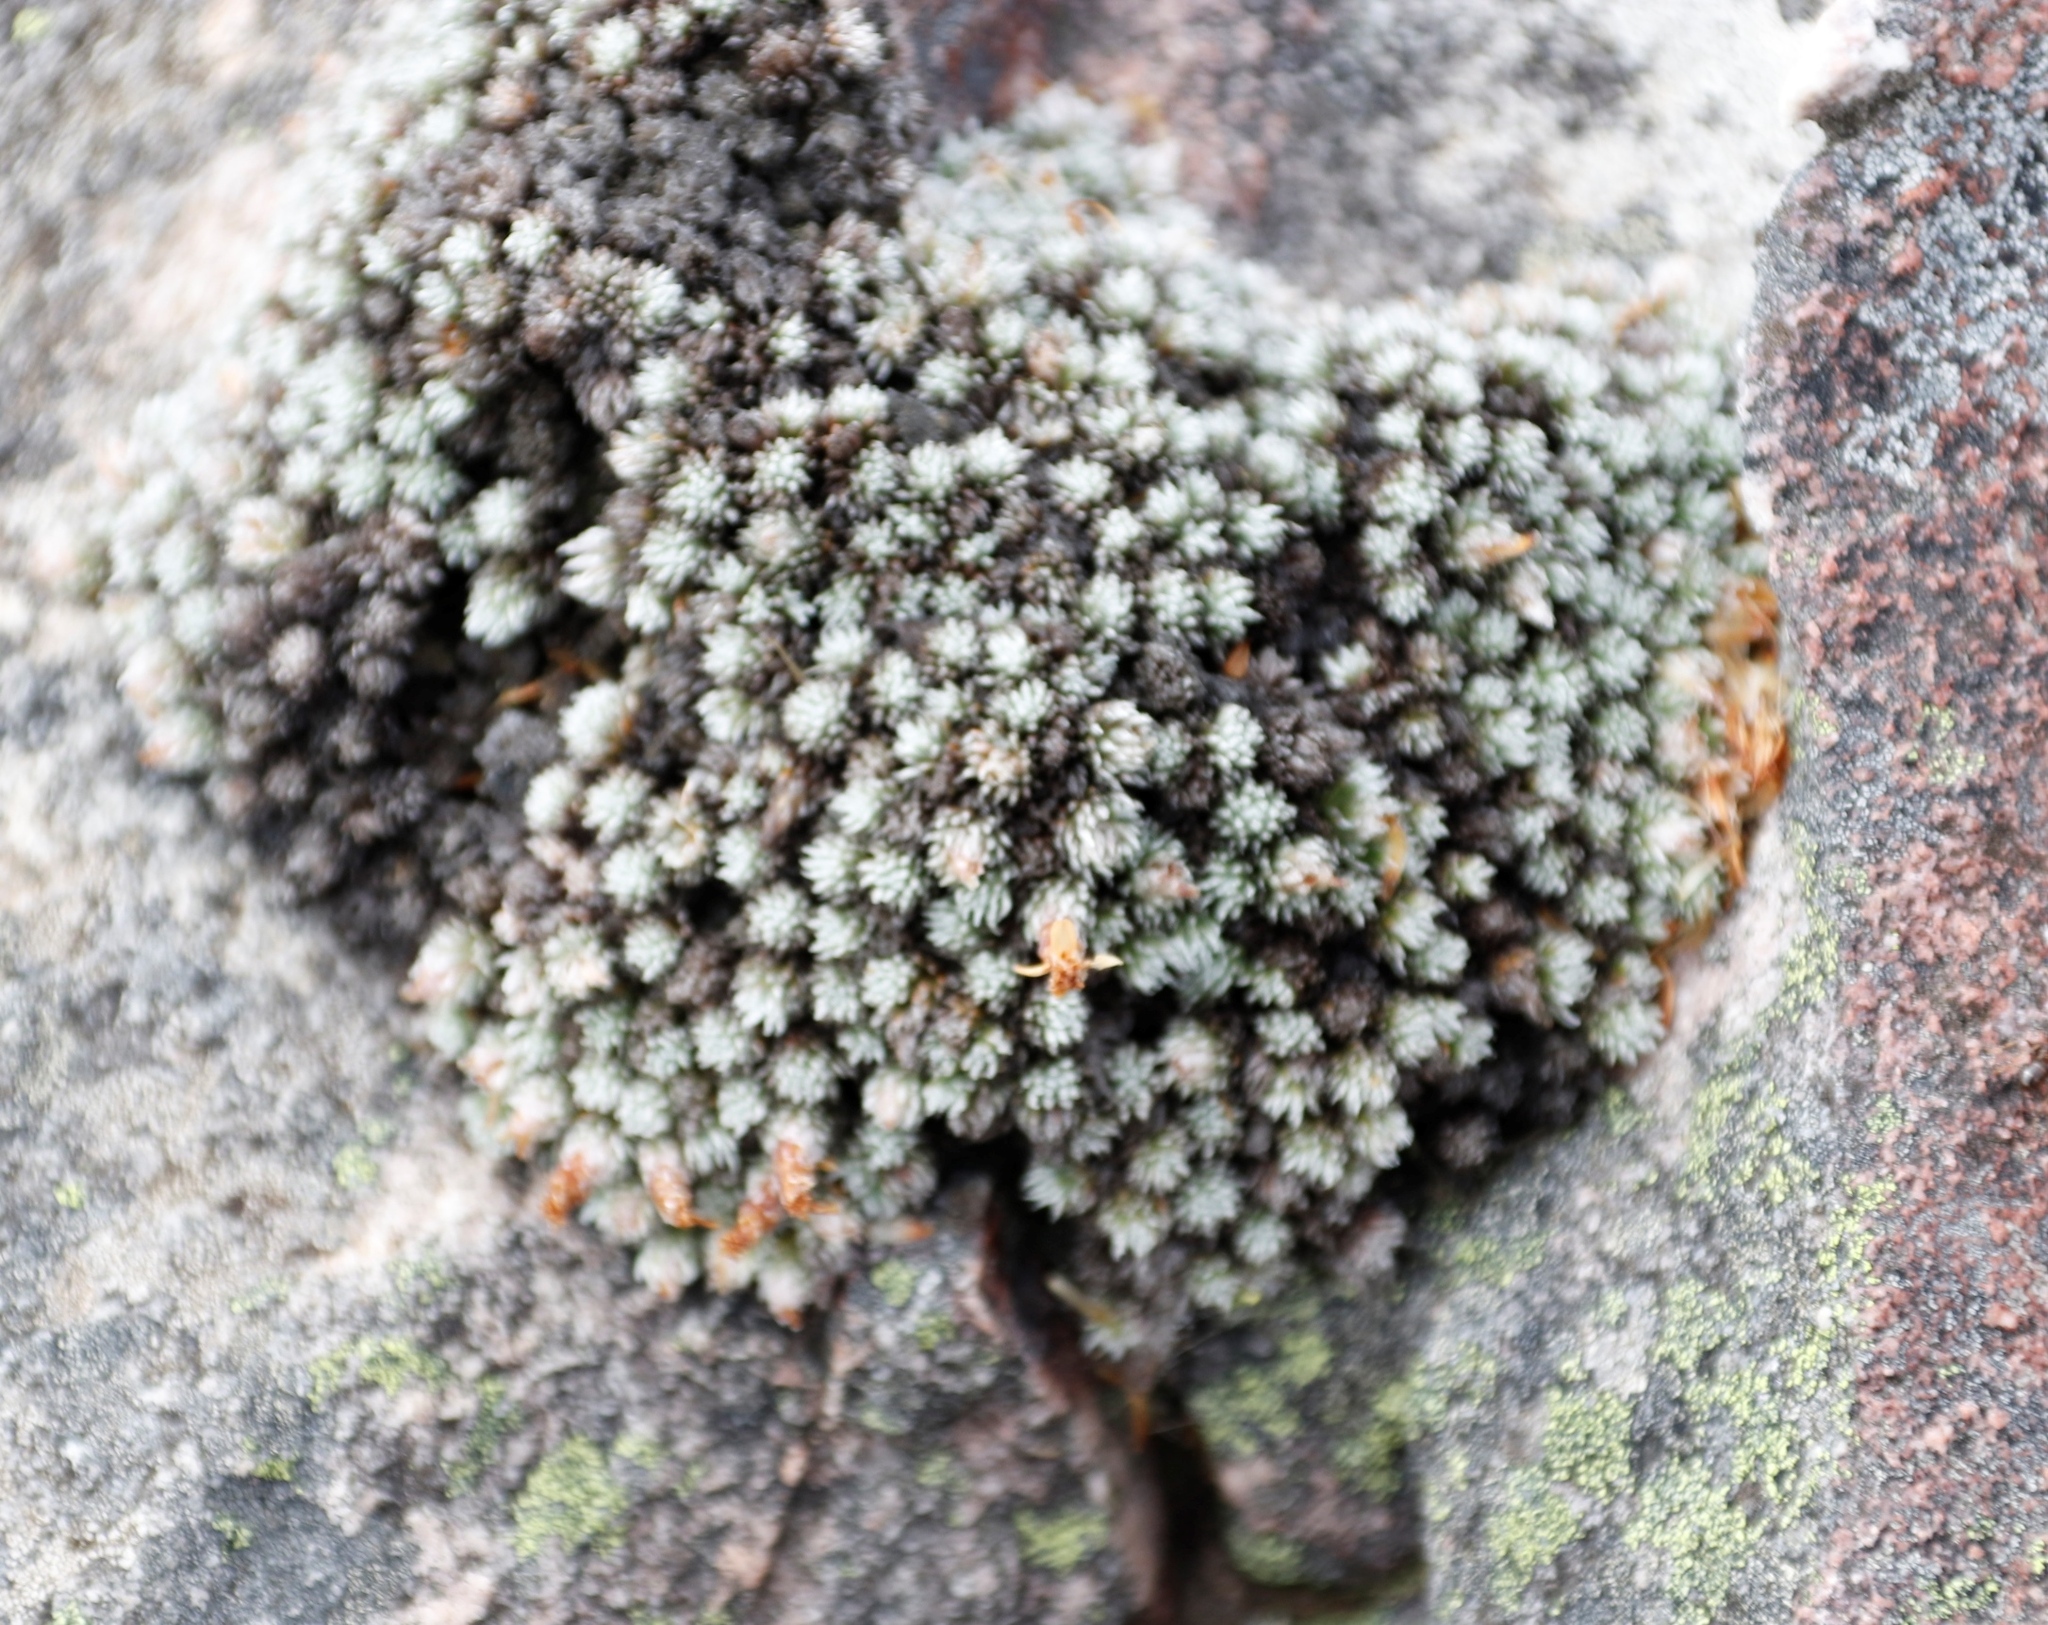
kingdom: Plantae
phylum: Tracheophyta
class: Magnoliopsida
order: Asterales
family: Asteraceae
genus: Muscosomorphe
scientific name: Muscosomorphe aretioides
